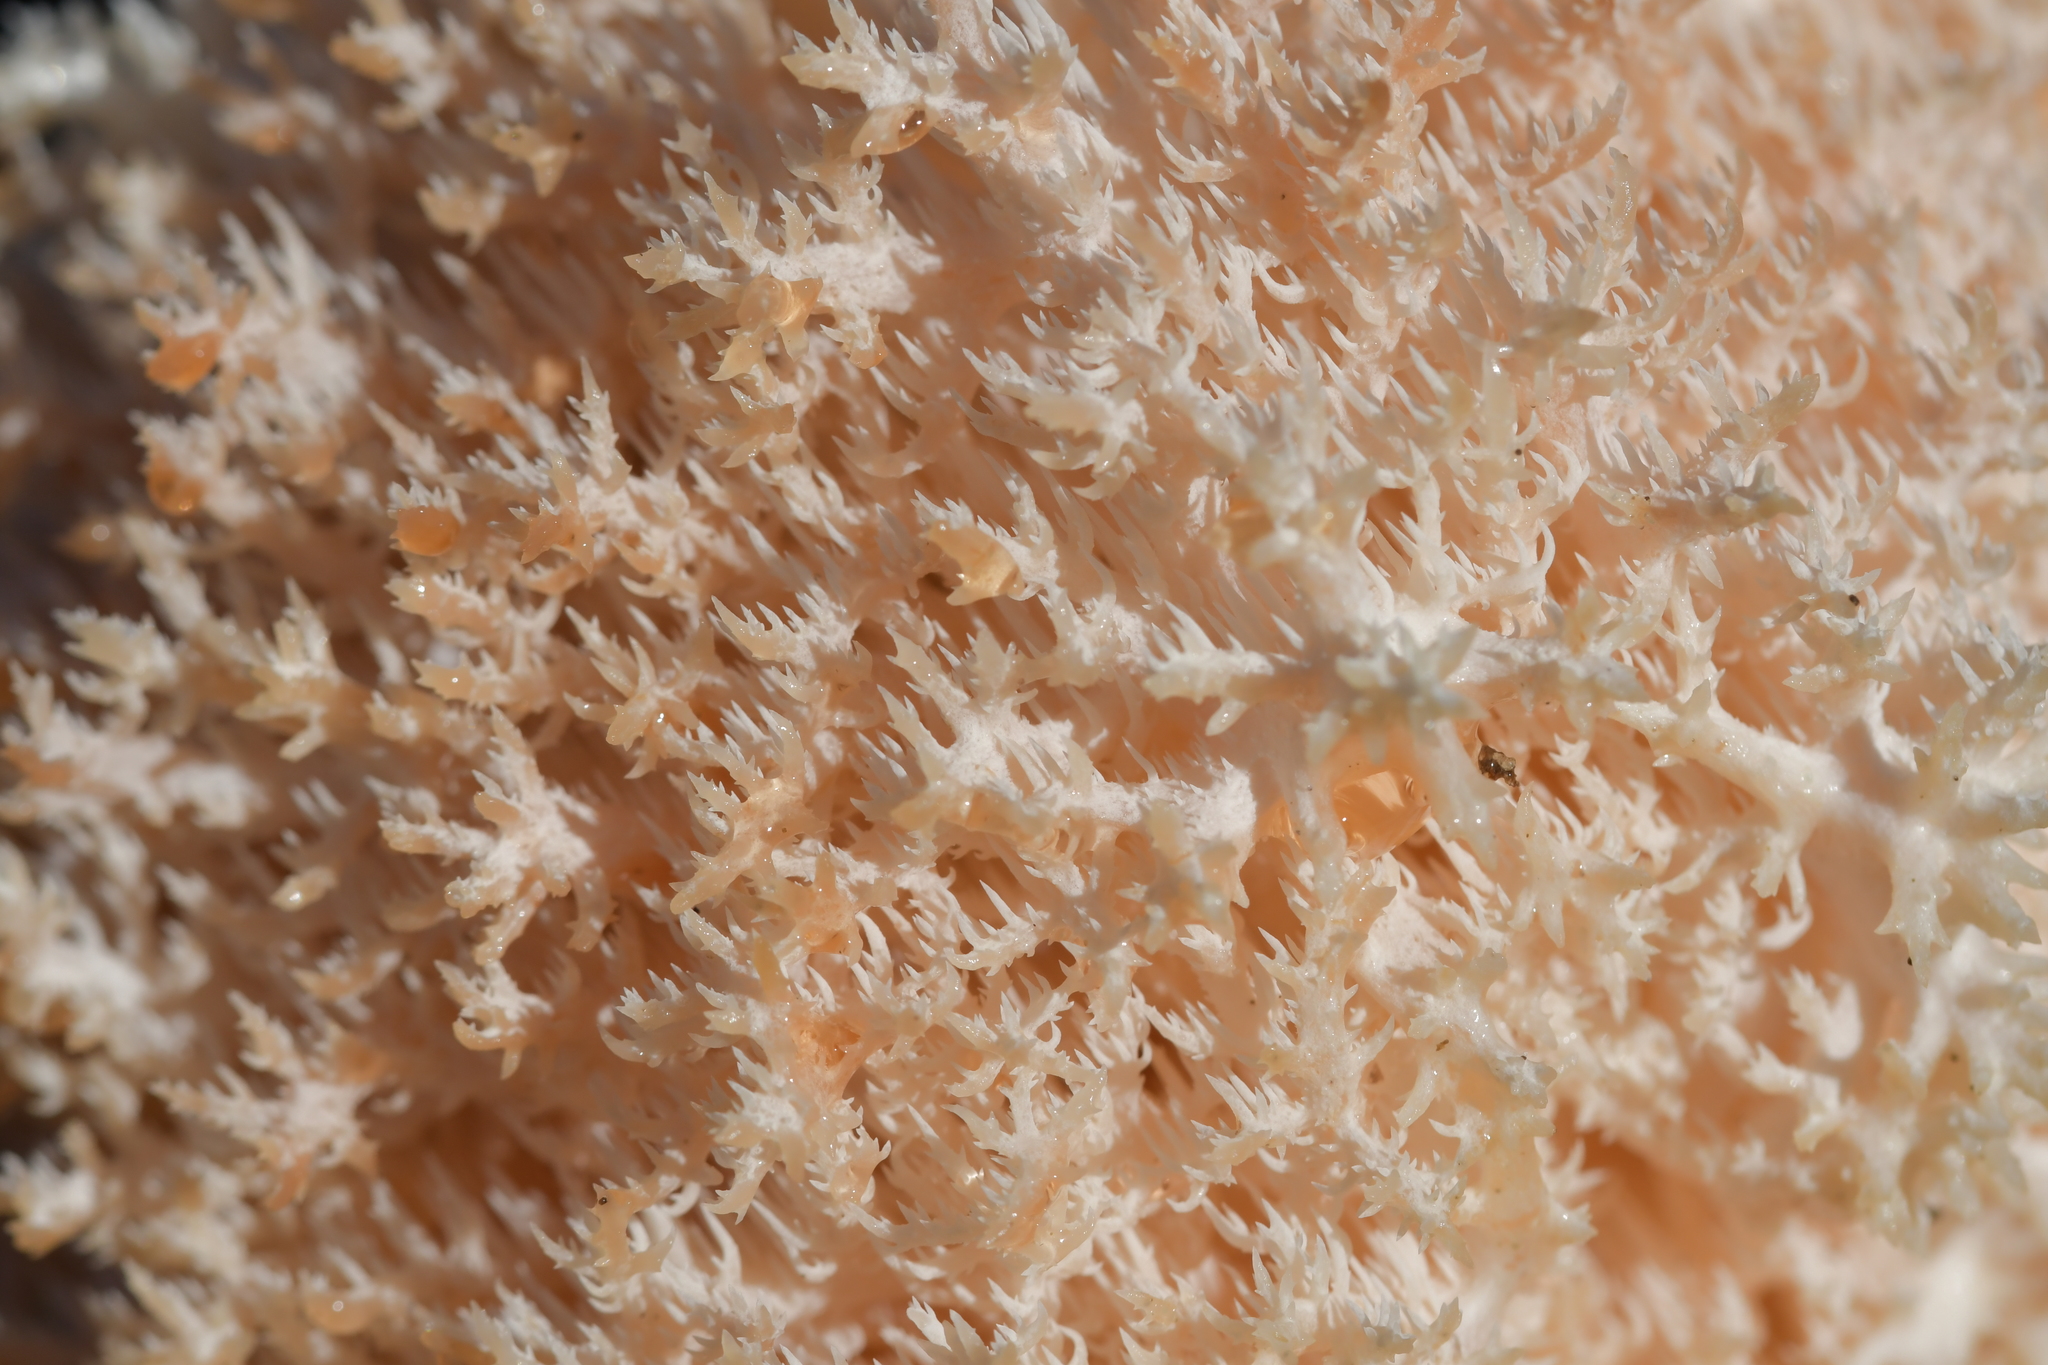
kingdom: Fungi
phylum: Basidiomycota
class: Agaricomycetes
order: Russulales
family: Hericiaceae
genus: Hericium
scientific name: Hericium novae-zealandiae
